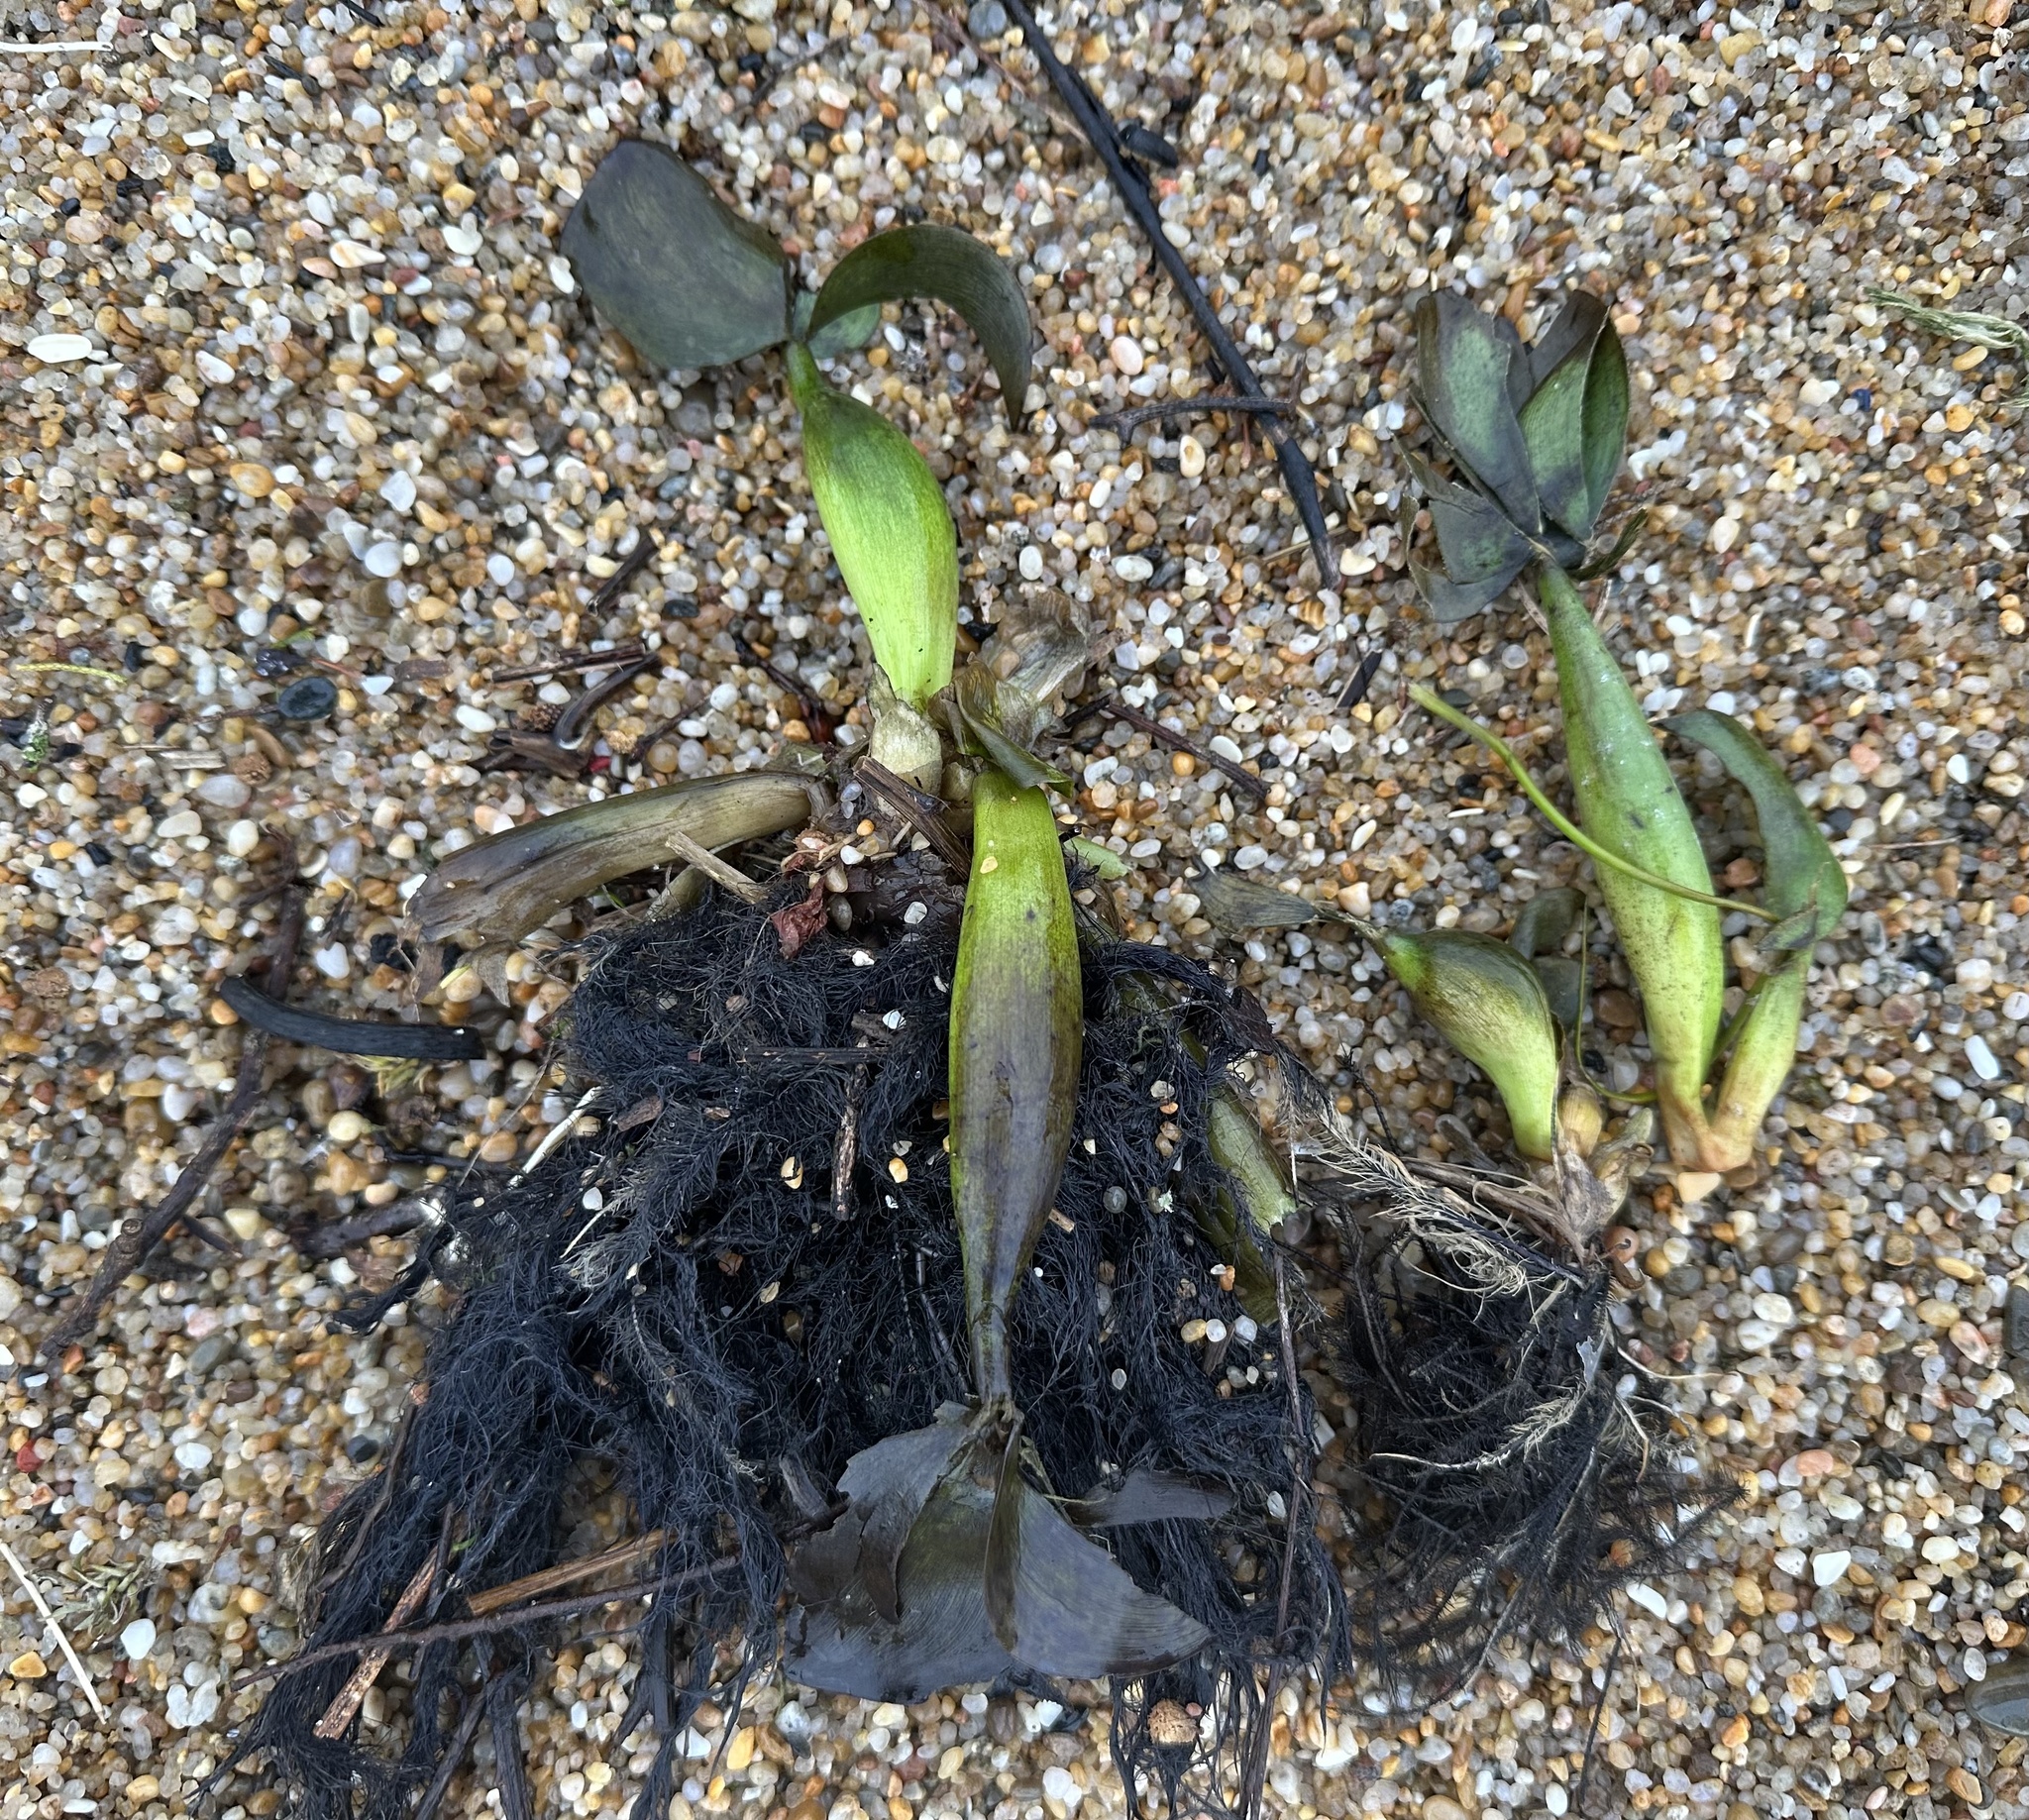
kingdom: Plantae
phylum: Tracheophyta
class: Liliopsida
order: Commelinales
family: Pontederiaceae
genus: Pontederia
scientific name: Pontederia crassipes
